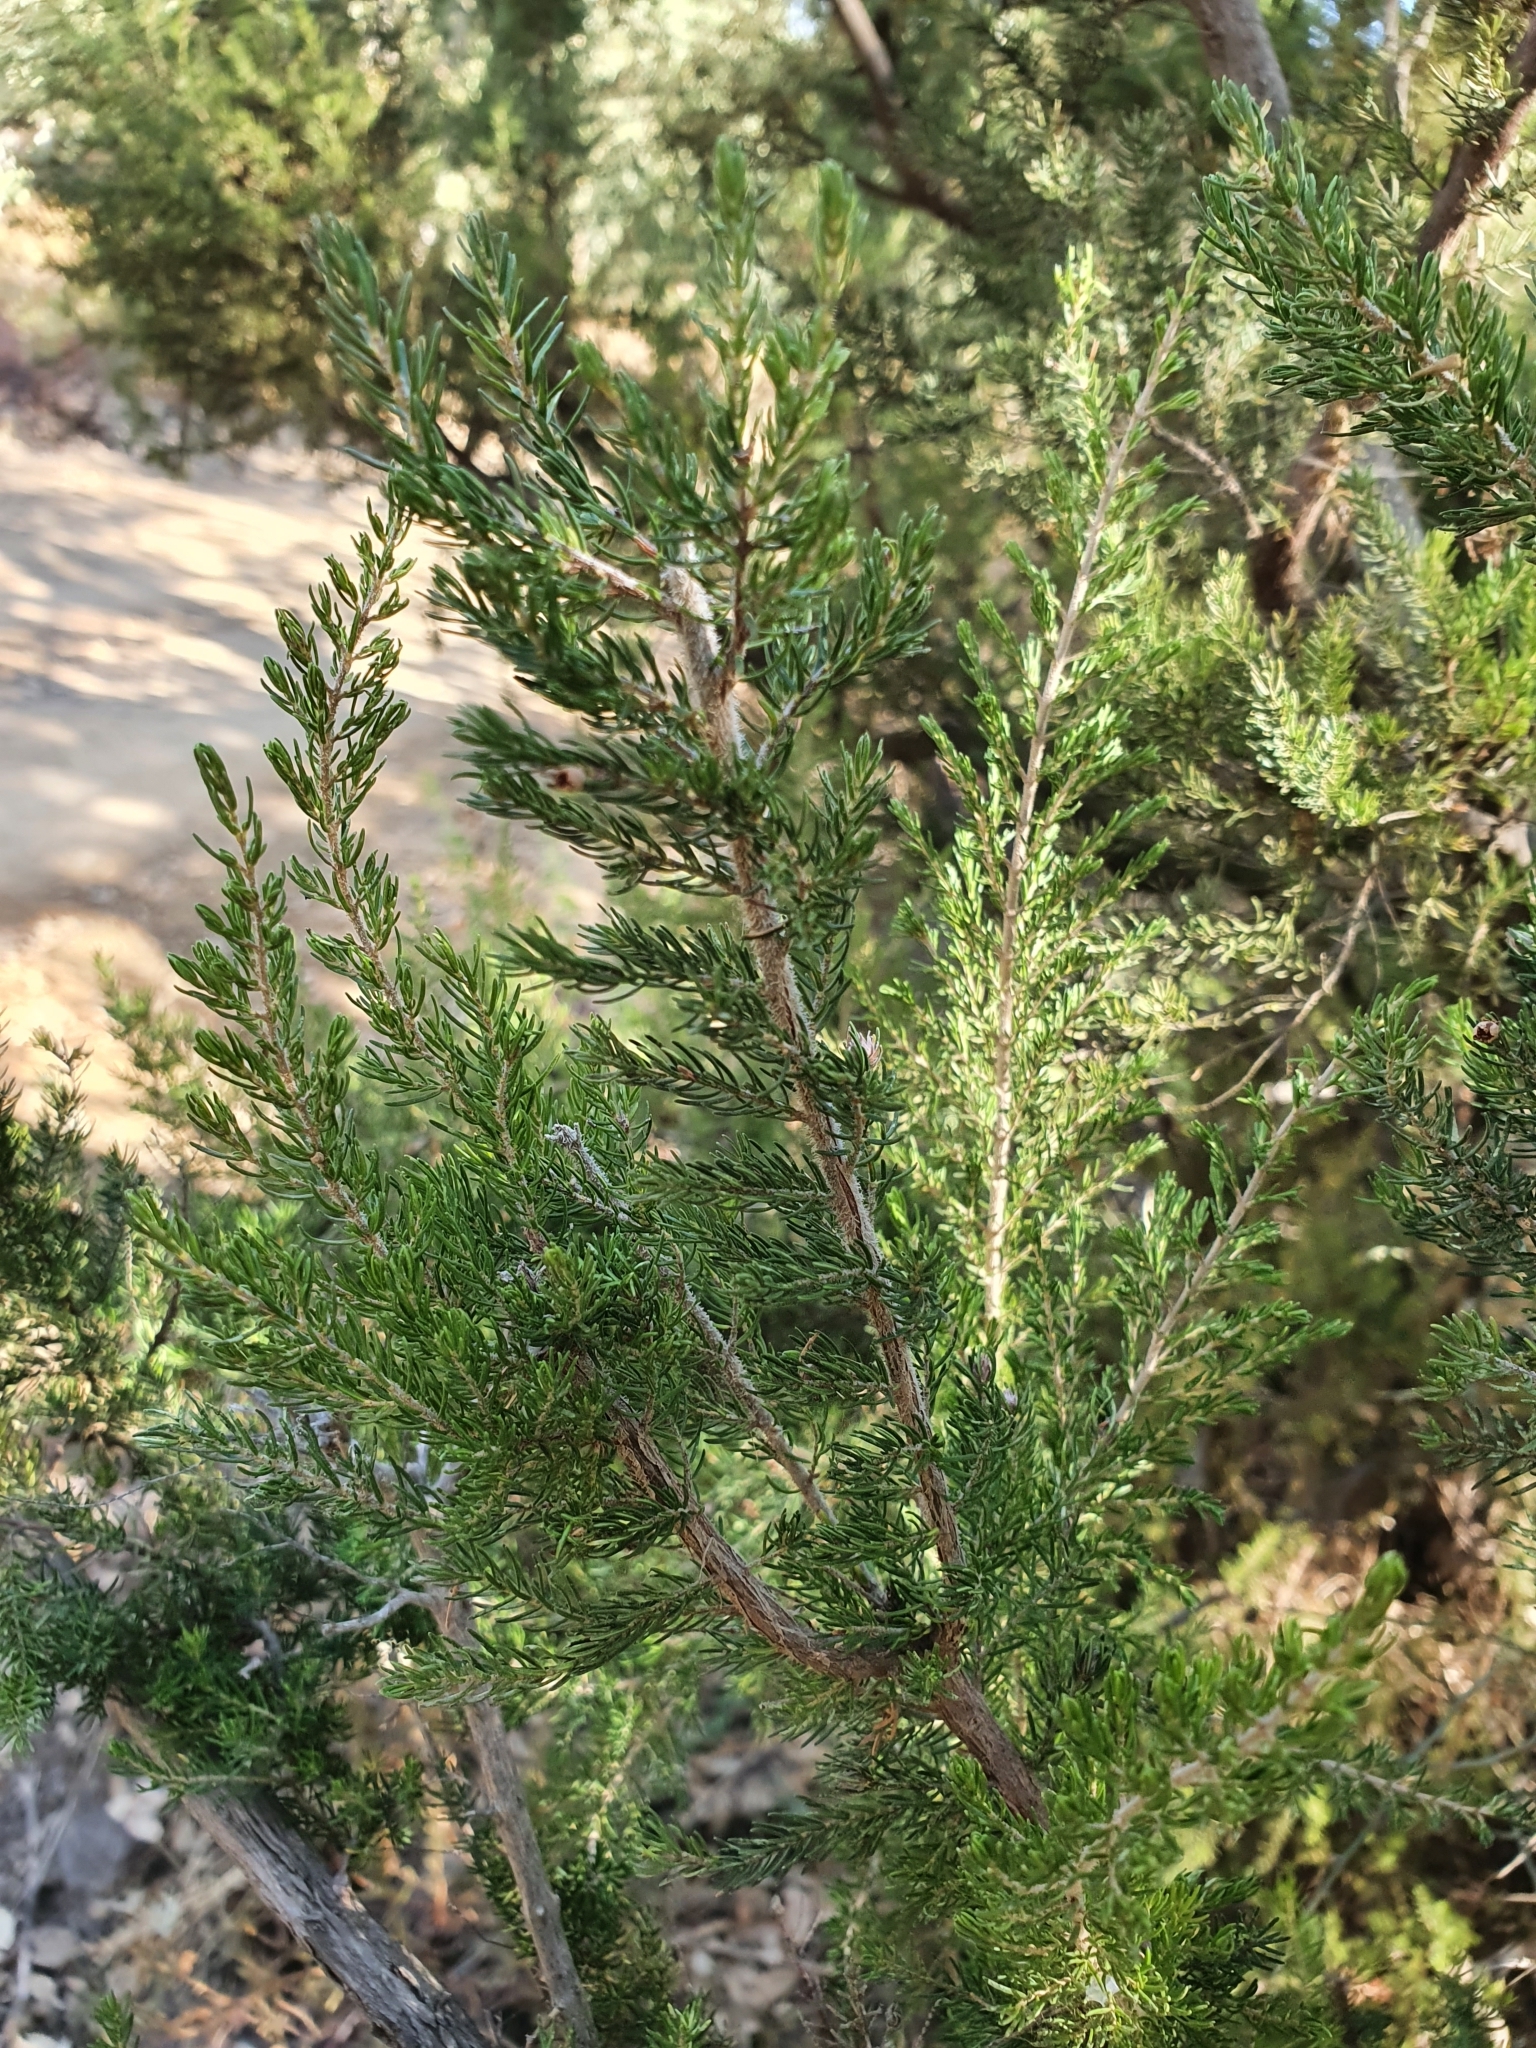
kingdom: Plantae
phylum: Tracheophyta
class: Magnoliopsida
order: Ericales
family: Ericaceae
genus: Erica
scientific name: Erica arborea
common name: Tree heath
